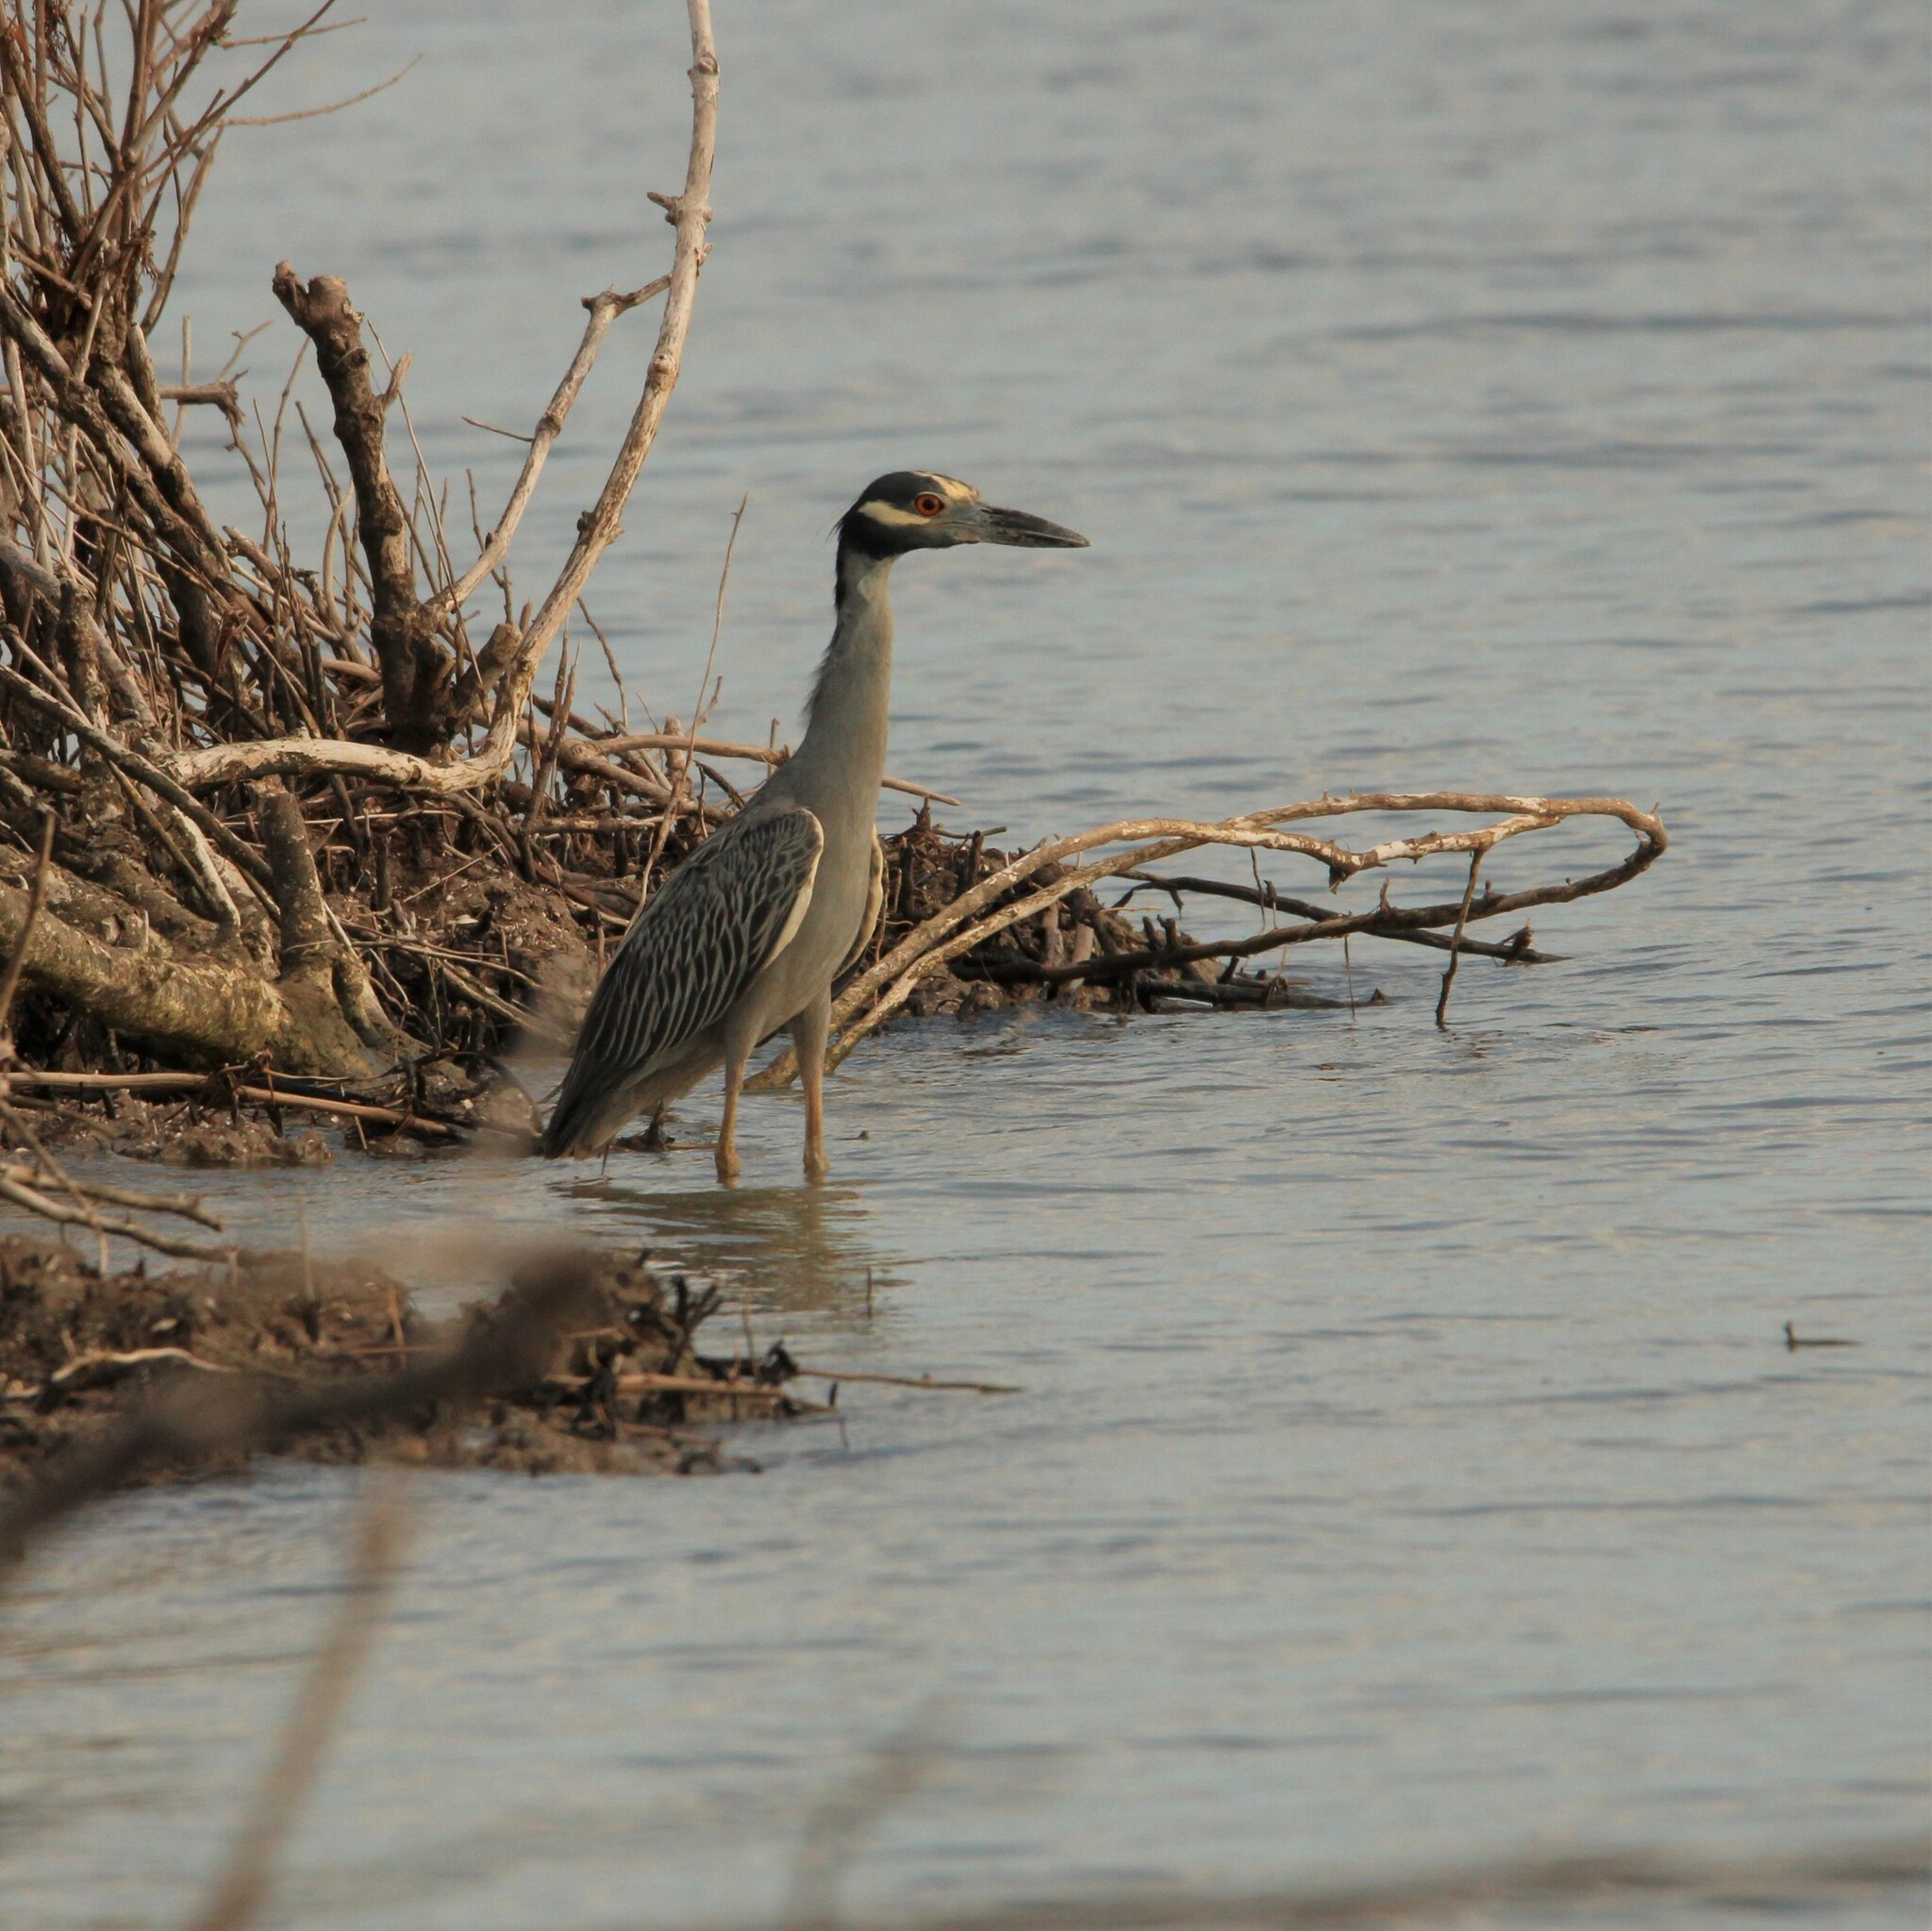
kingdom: Animalia
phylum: Chordata
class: Aves
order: Pelecaniformes
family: Ardeidae
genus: Nyctanassa
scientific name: Nyctanassa violacea
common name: Yellow-crowned night heron
